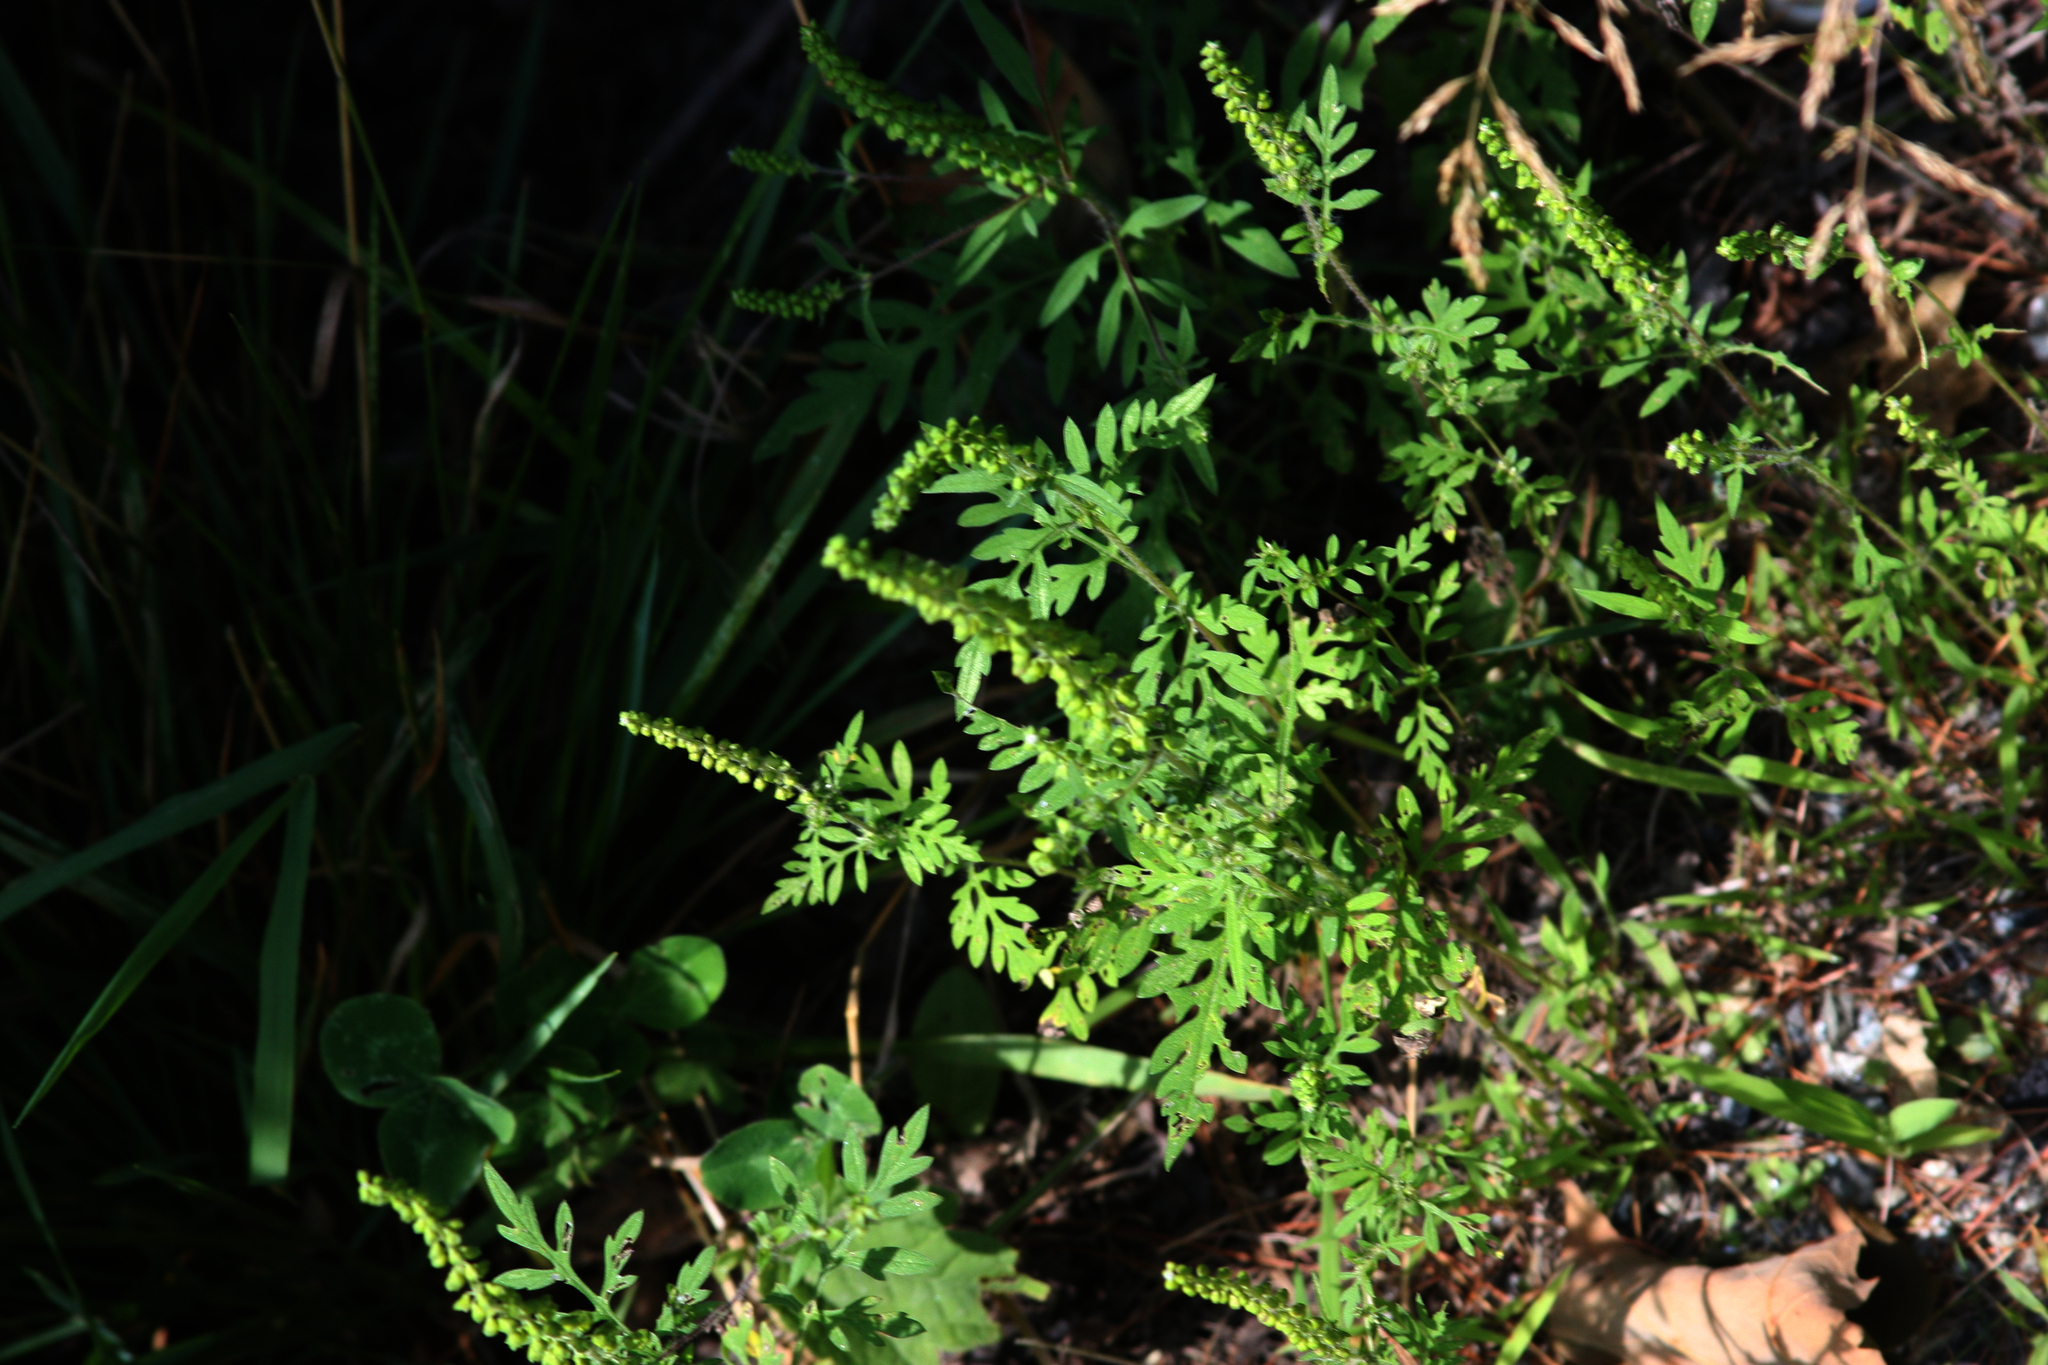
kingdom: Plantae
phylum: Tracheophyta
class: Magnoliopsida
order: Asterales
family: Asteraceae
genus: Ambrosia
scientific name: Ambrosia artemisiifolia
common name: Annual ragweed
